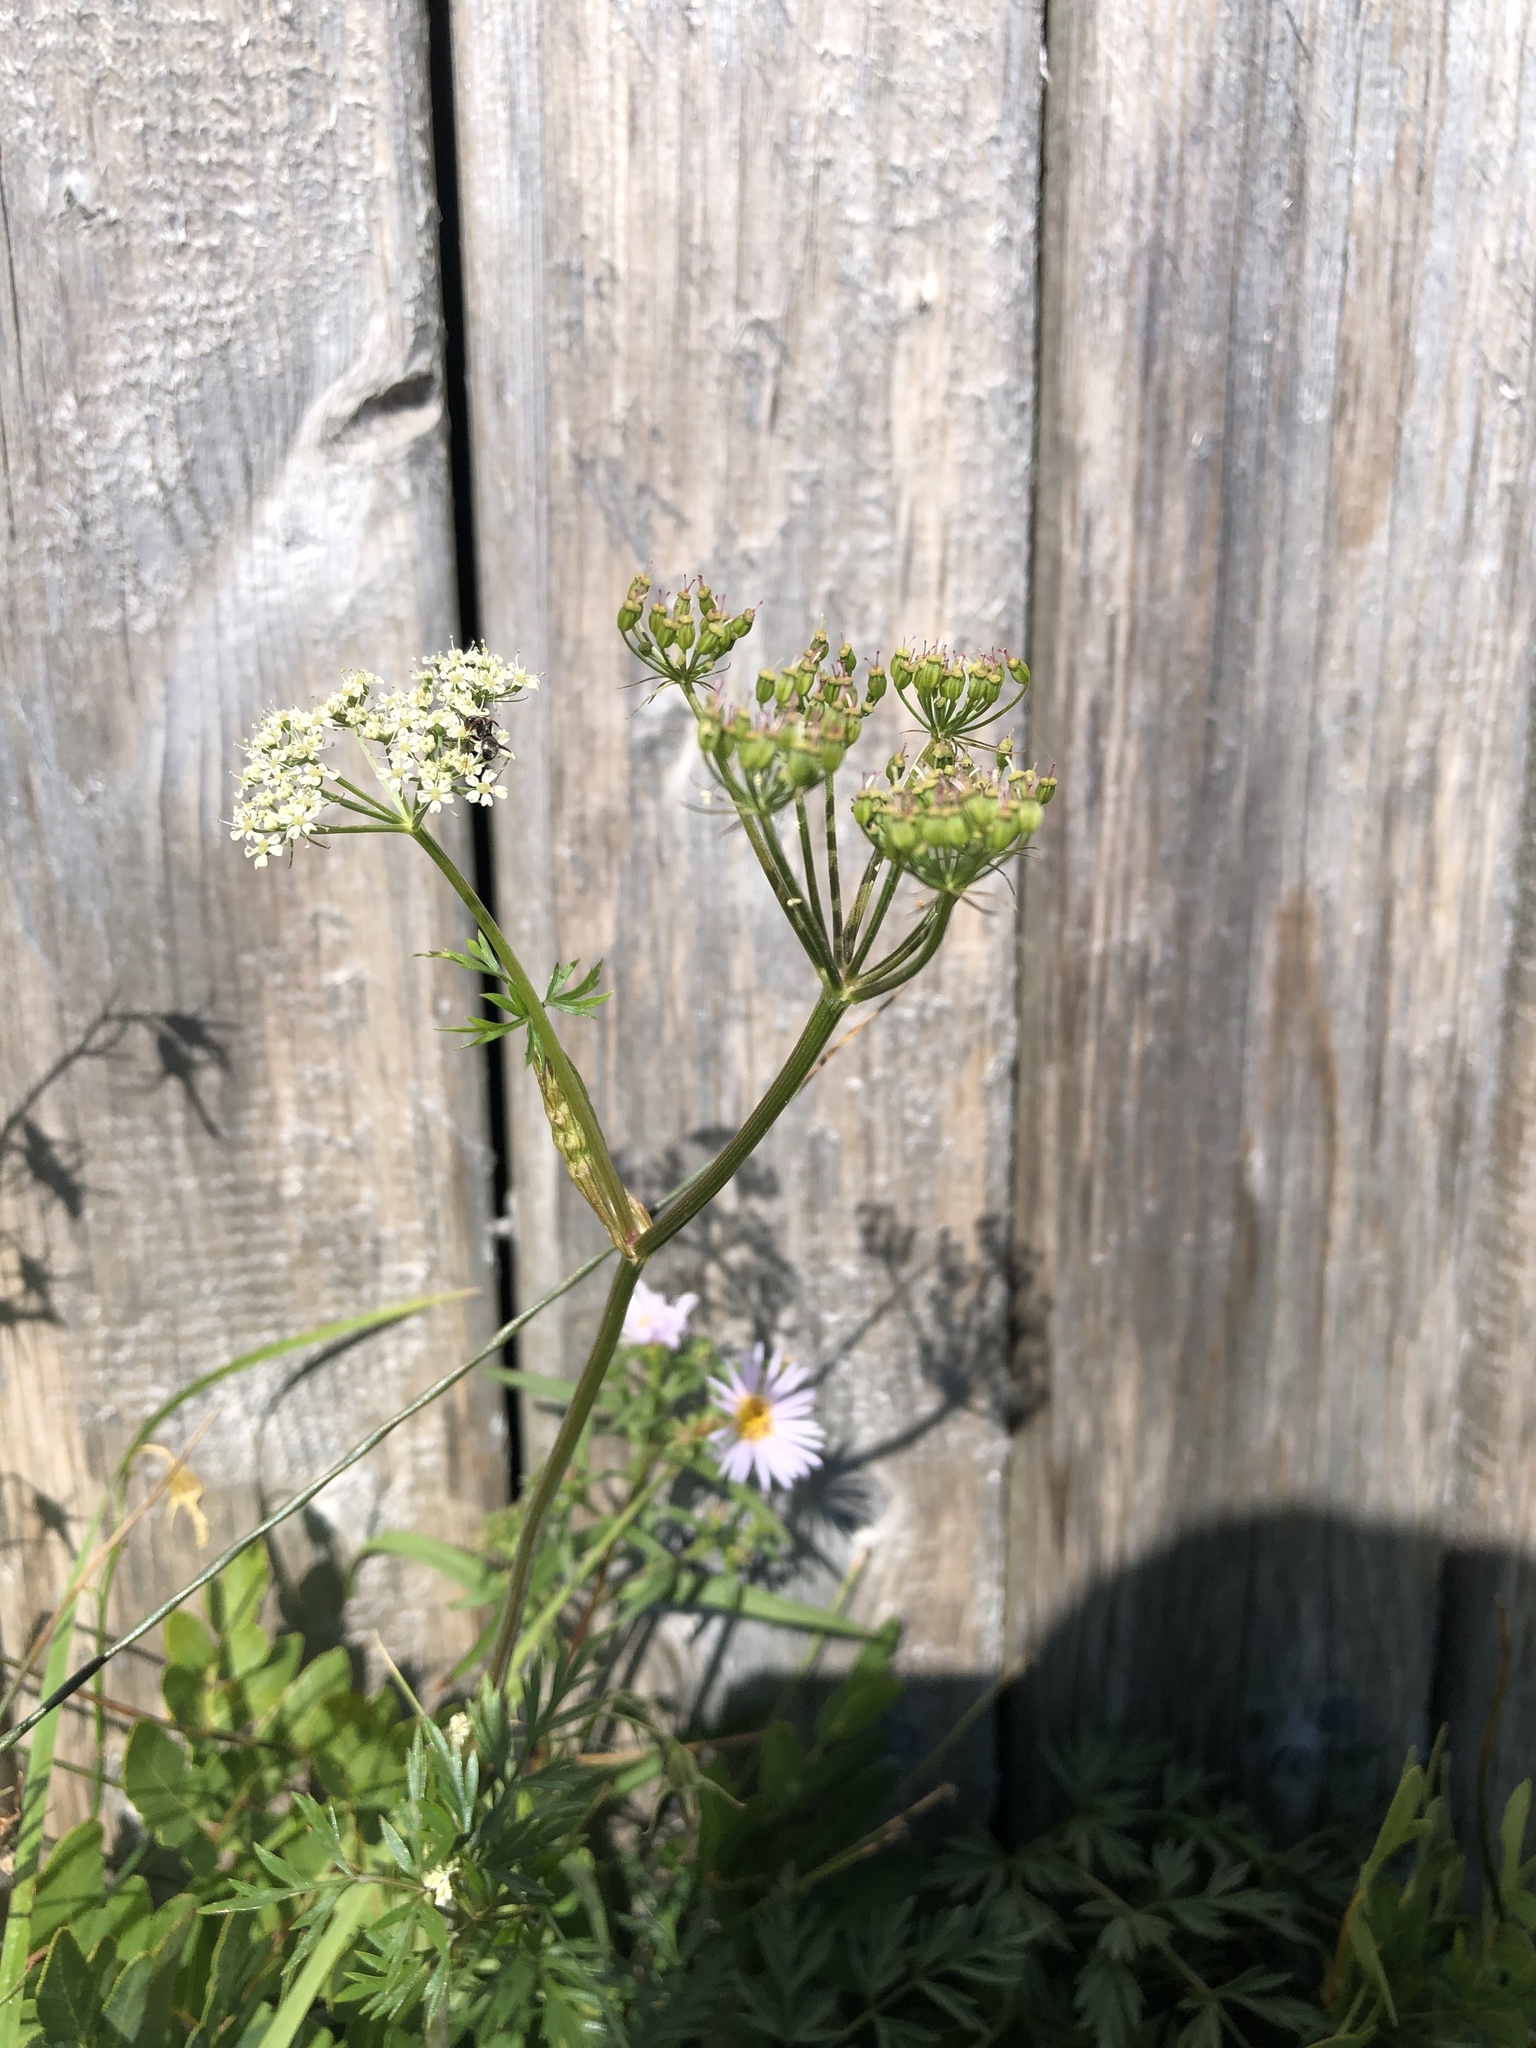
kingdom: Plantae
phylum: Tracheophyta
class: Magnoliopsida
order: Apiales
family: Apiaceae
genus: Carum
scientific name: Carum carvi
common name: Caraway
